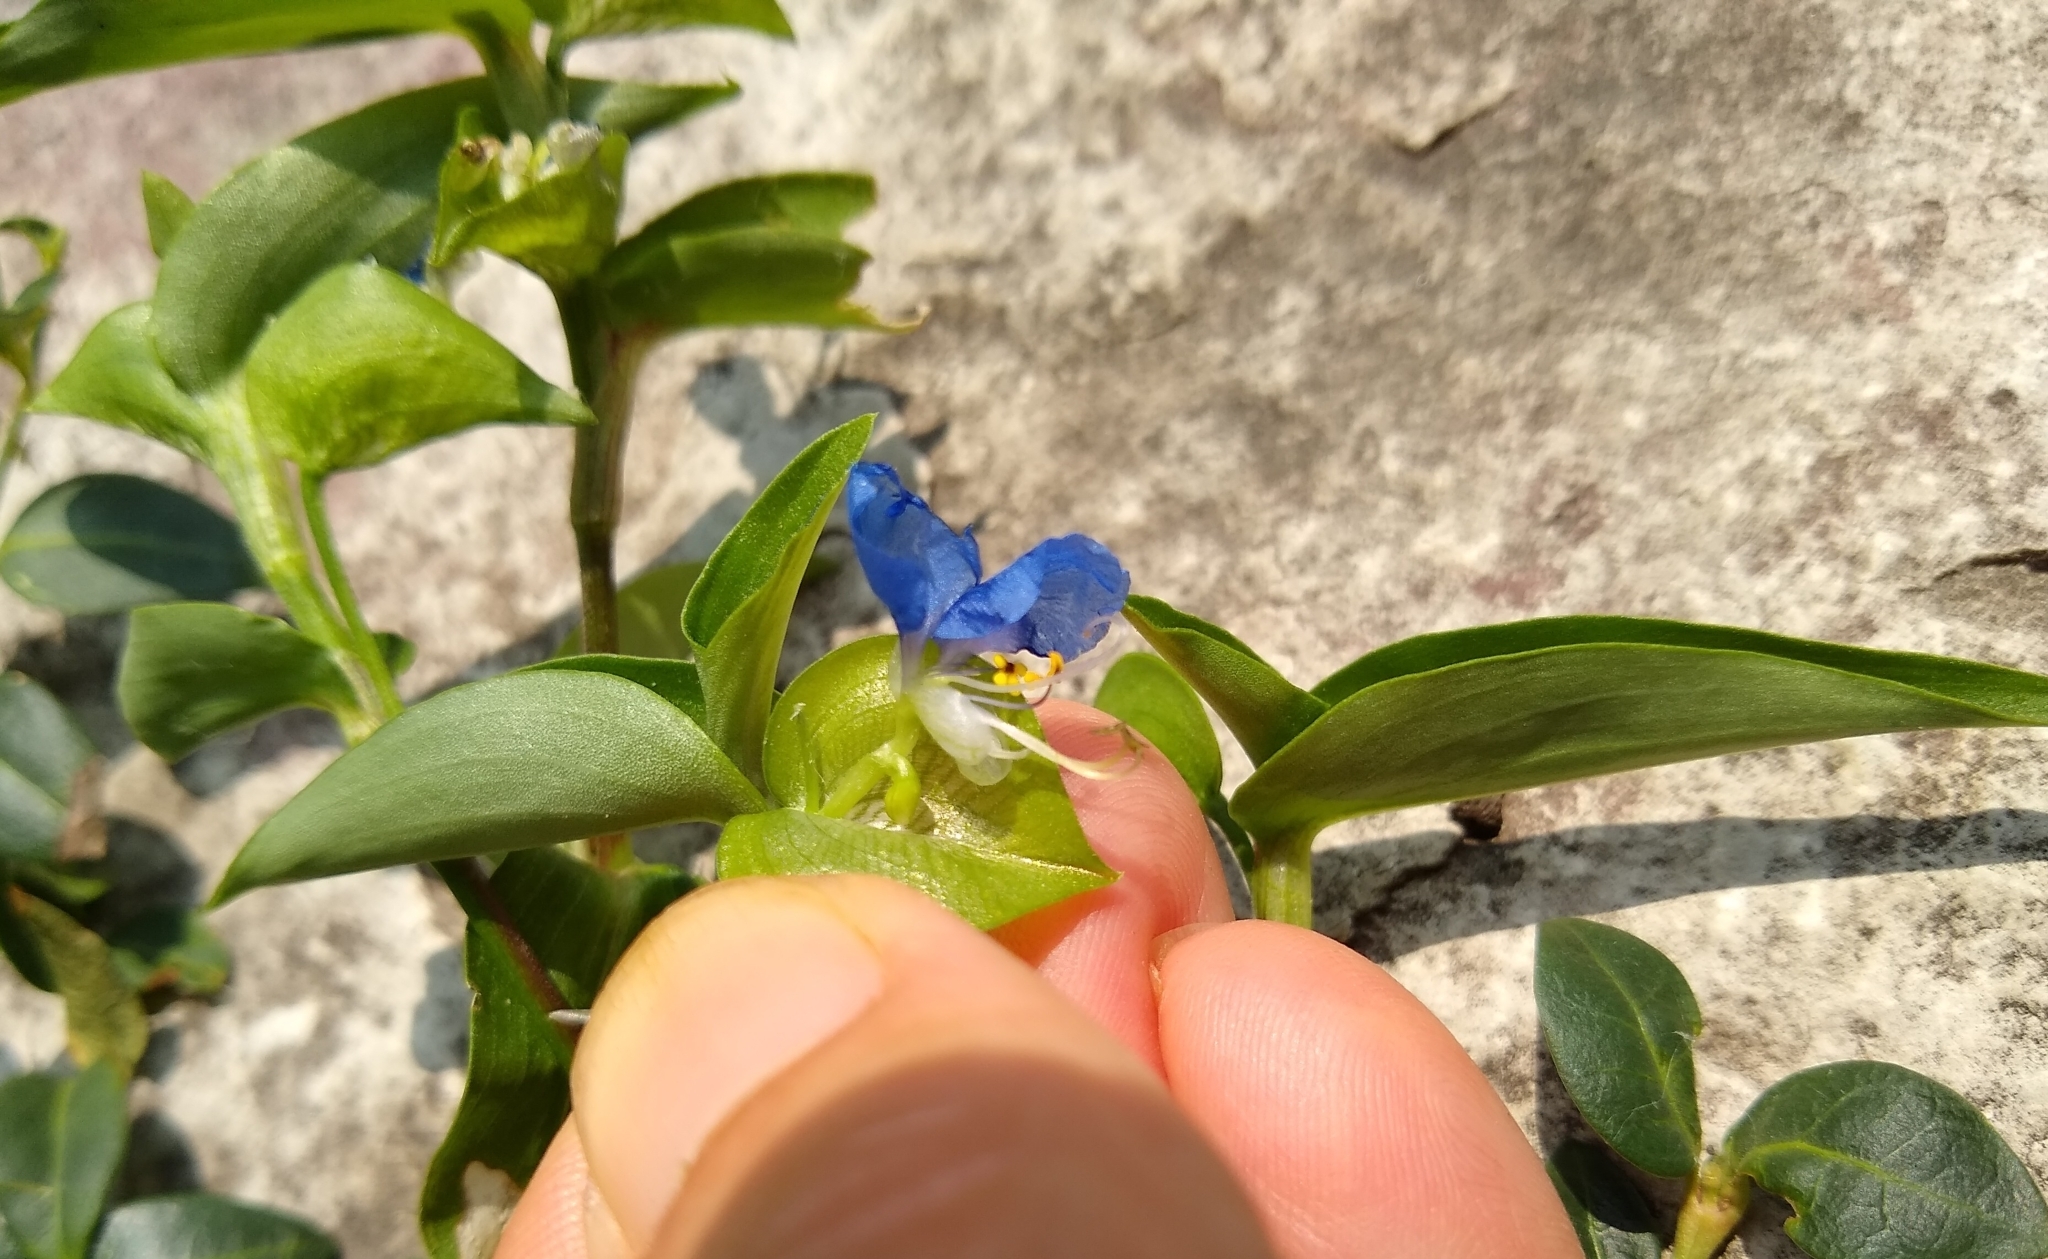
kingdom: Plantae
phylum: Tracheophyta
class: Liliopsida
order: Commelinales
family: Commelinaceae
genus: Commelina
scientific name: Commelina communis
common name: Asiatic dayflower
